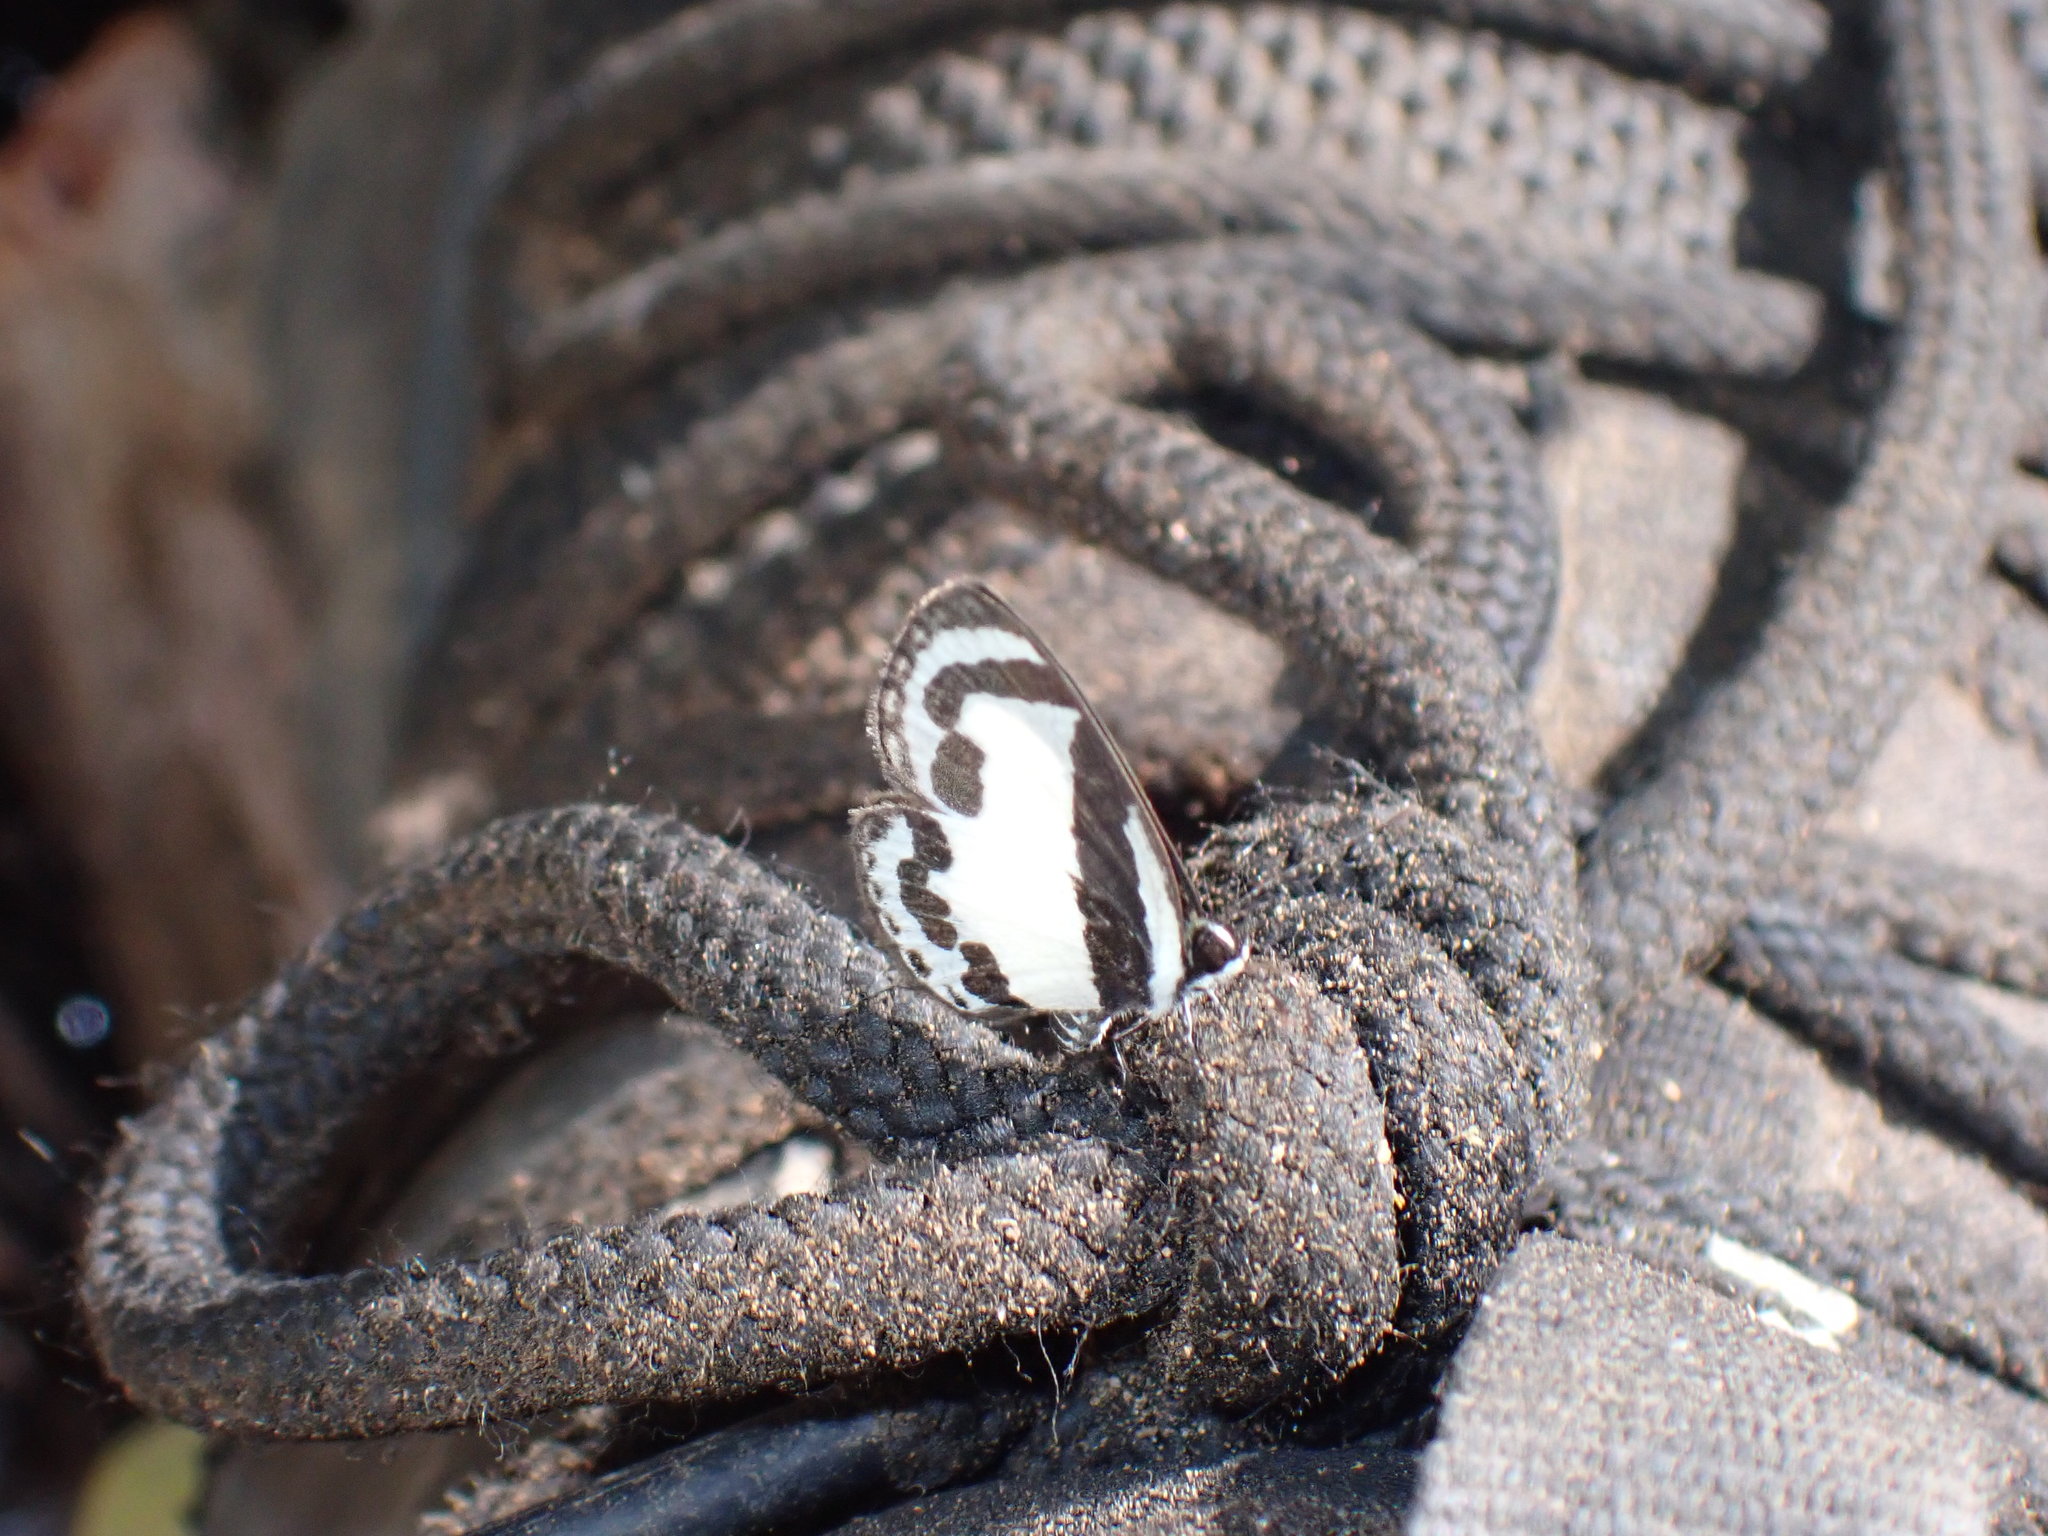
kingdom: Animalia
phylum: Arthropoda
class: Insecta
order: Lepidoptera
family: Lycaenidae
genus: Caleta
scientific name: Caleta roxus
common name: Straight pierrot
